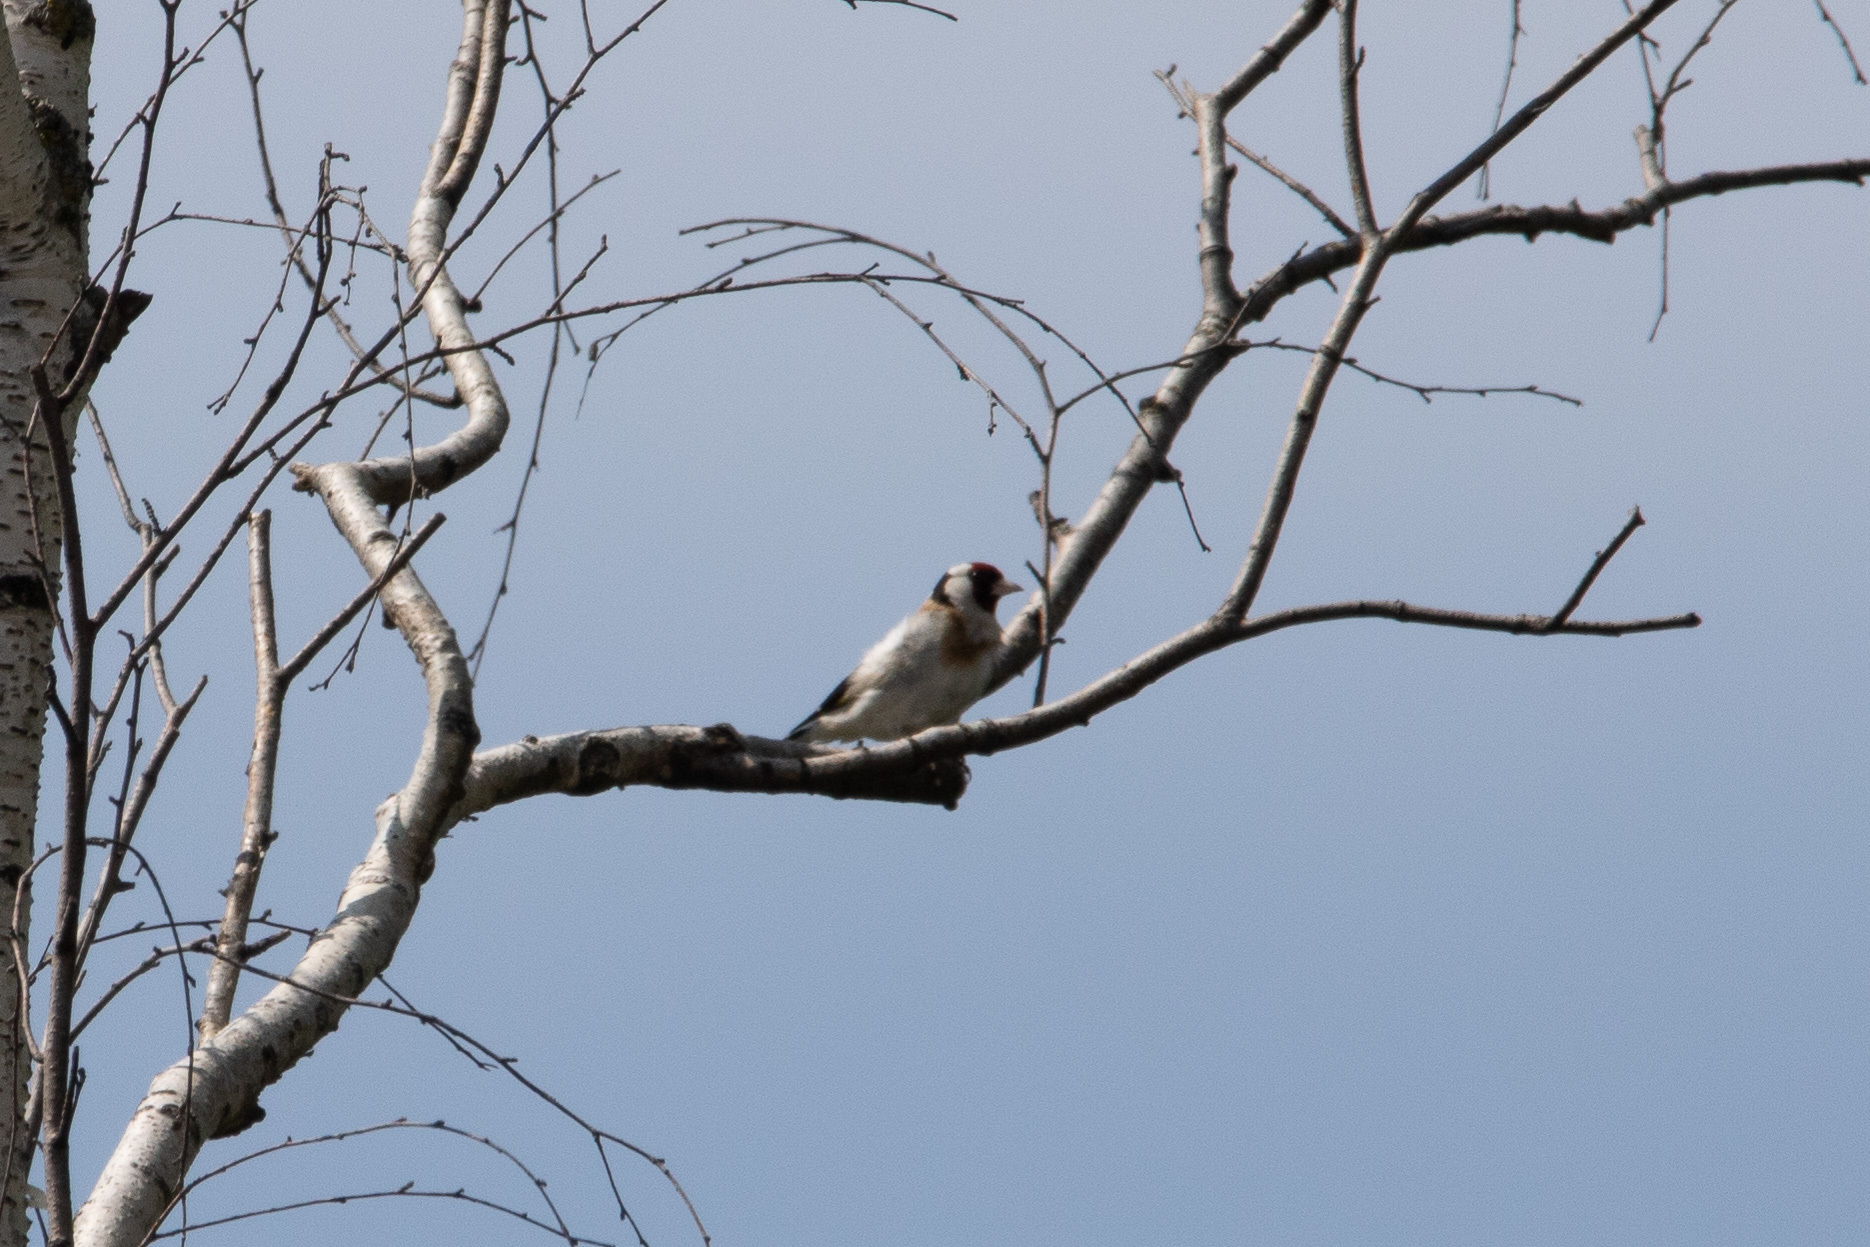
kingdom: Animalia
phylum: Chordata
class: Aves
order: Passeriformes
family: Fringillidae
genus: Carduelis
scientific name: Carduelis carduelis
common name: European goldfinch
